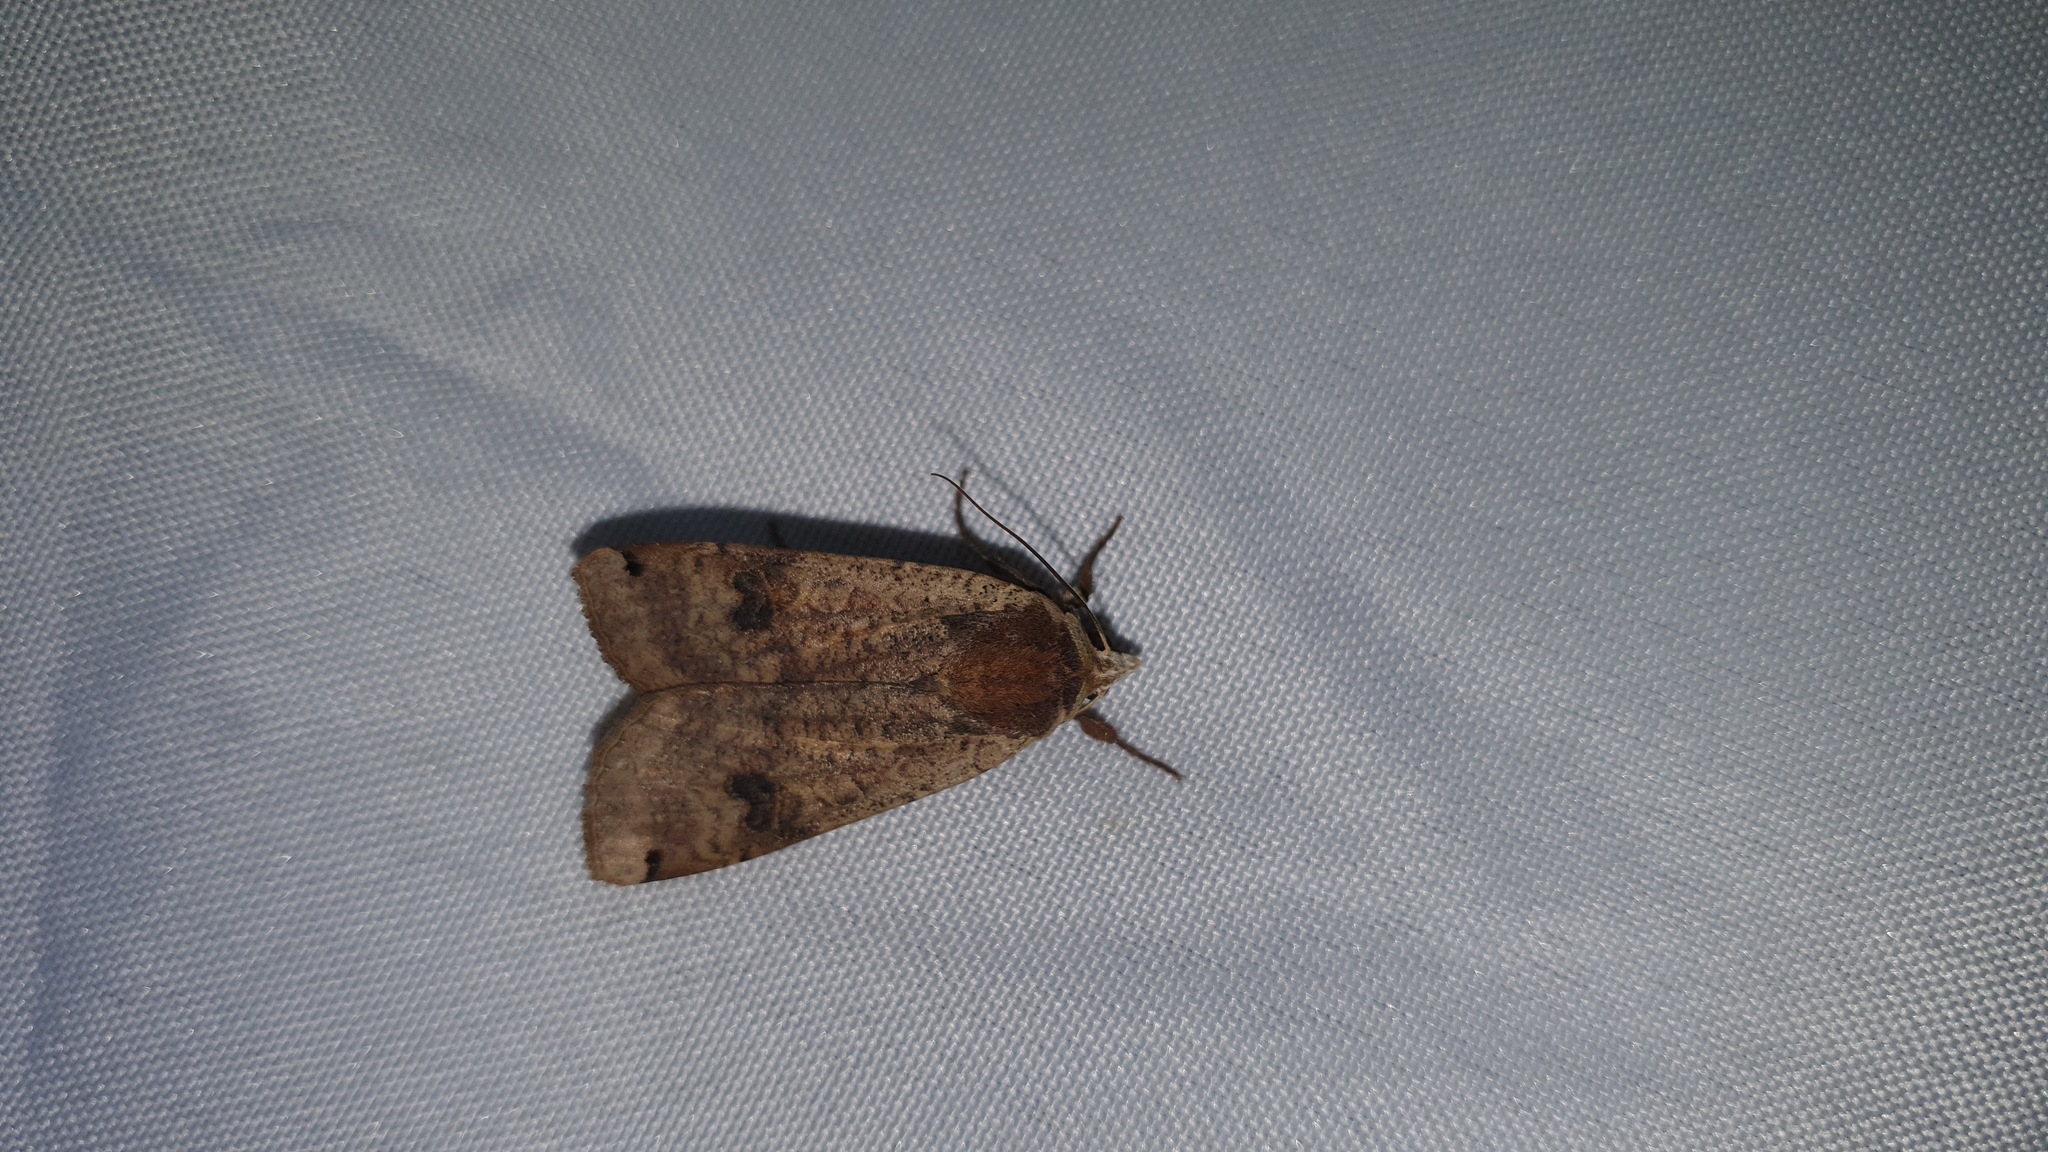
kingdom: Animalia
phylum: Arthropoda
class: Insecta
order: Lepidoptera
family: Noctuidae
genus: Noctua
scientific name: Noctua pronuba
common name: Large yellow underwing
